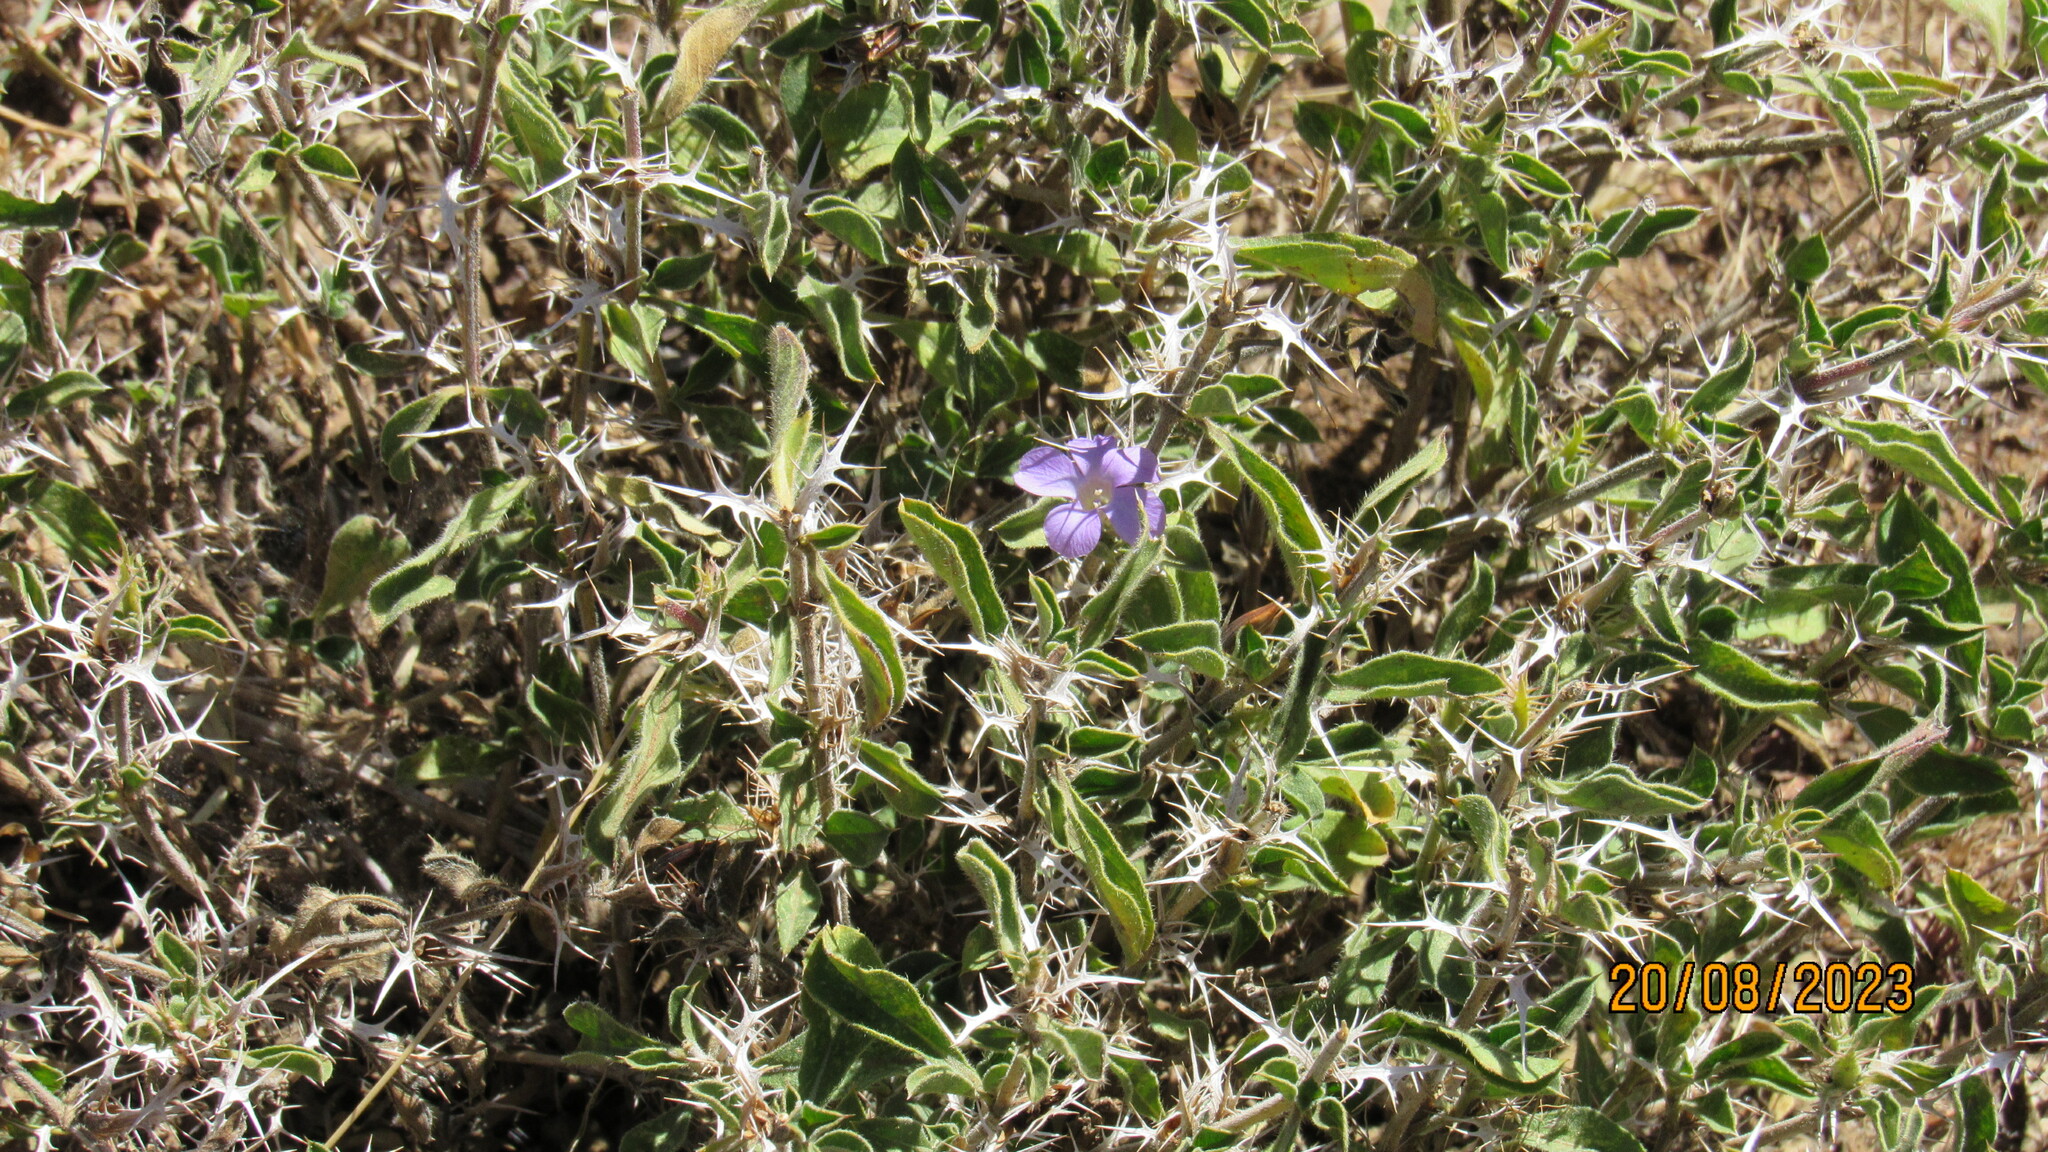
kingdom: Plantae
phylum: Tracheophyta
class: Magnoliopsida
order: Lamiales
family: Acanthaceae
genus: Barleria
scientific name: Barleria delamerei
